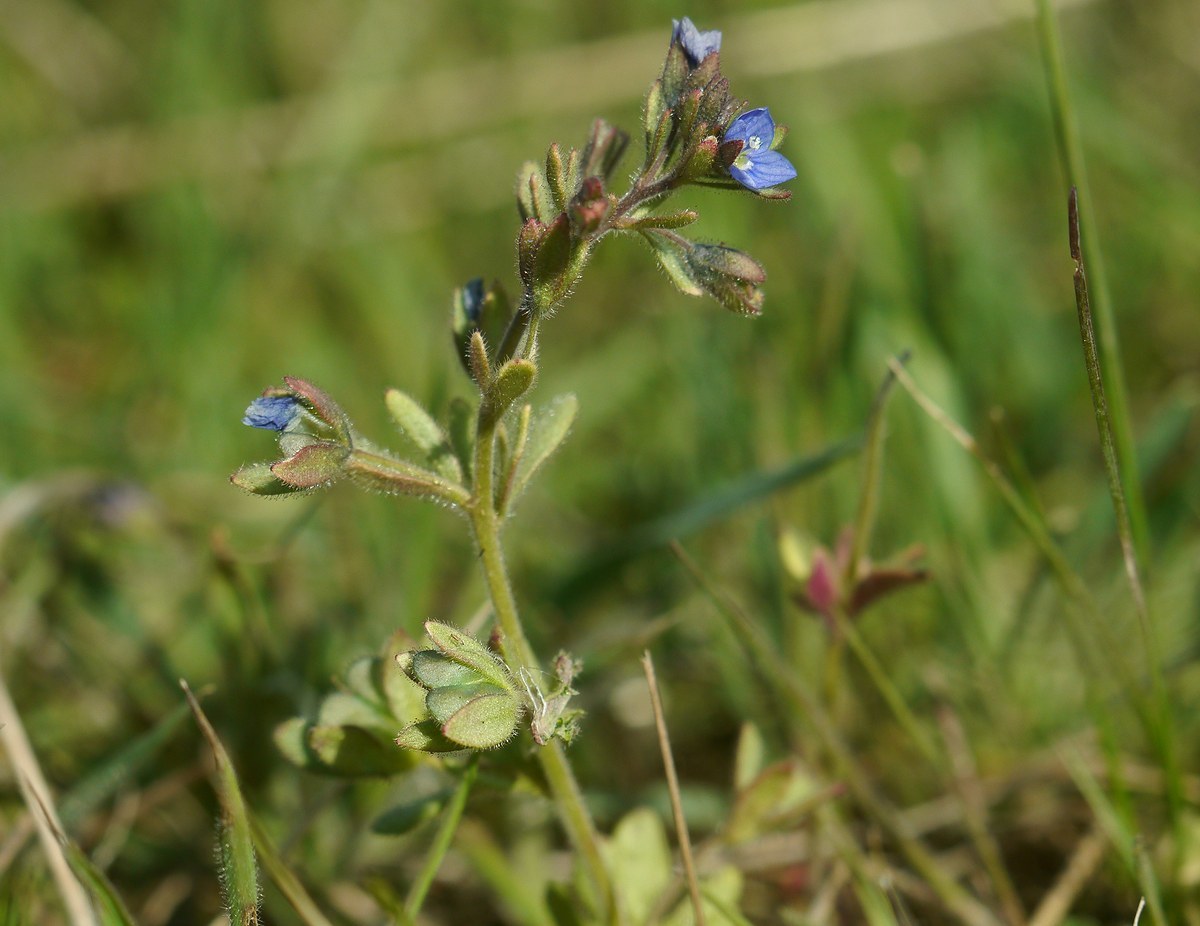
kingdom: Plantae
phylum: Tracheophyta
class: Magnoliopsida
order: Lamiales
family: Plantaginaceae
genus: Veronica
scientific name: Veronica triphyllos
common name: Fingered speedwell
